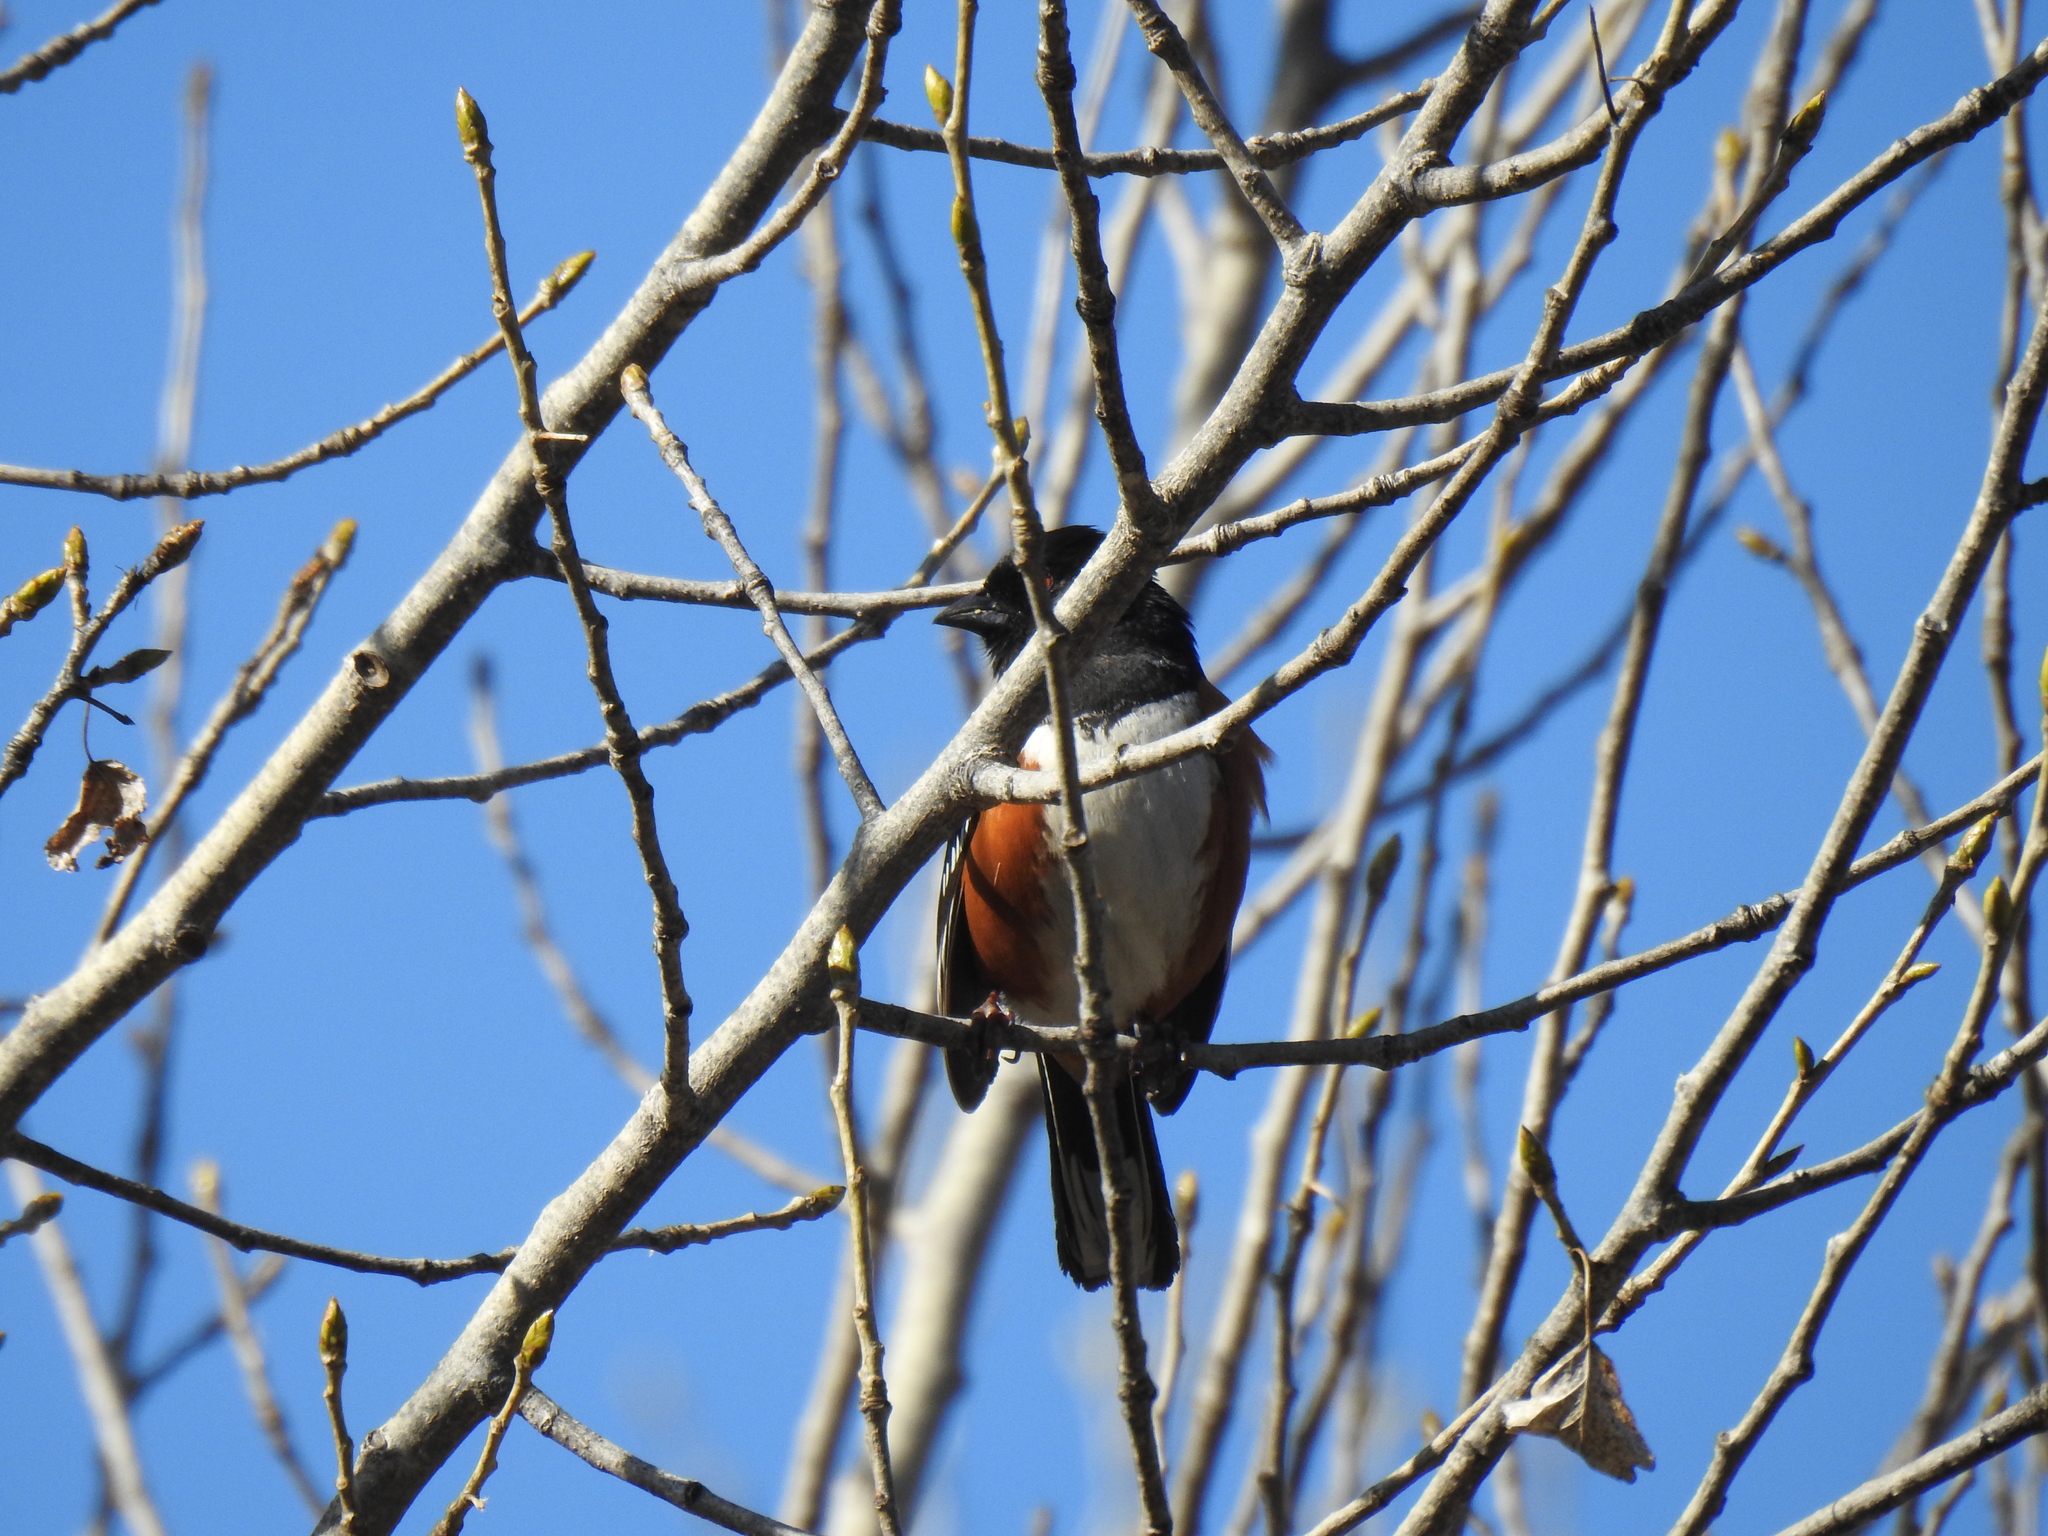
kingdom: Animalia
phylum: Chordata
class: Aves
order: Passeriformes
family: Passerellidae
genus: Pipilo
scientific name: Pipilo maculatus
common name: Spotted towhee
